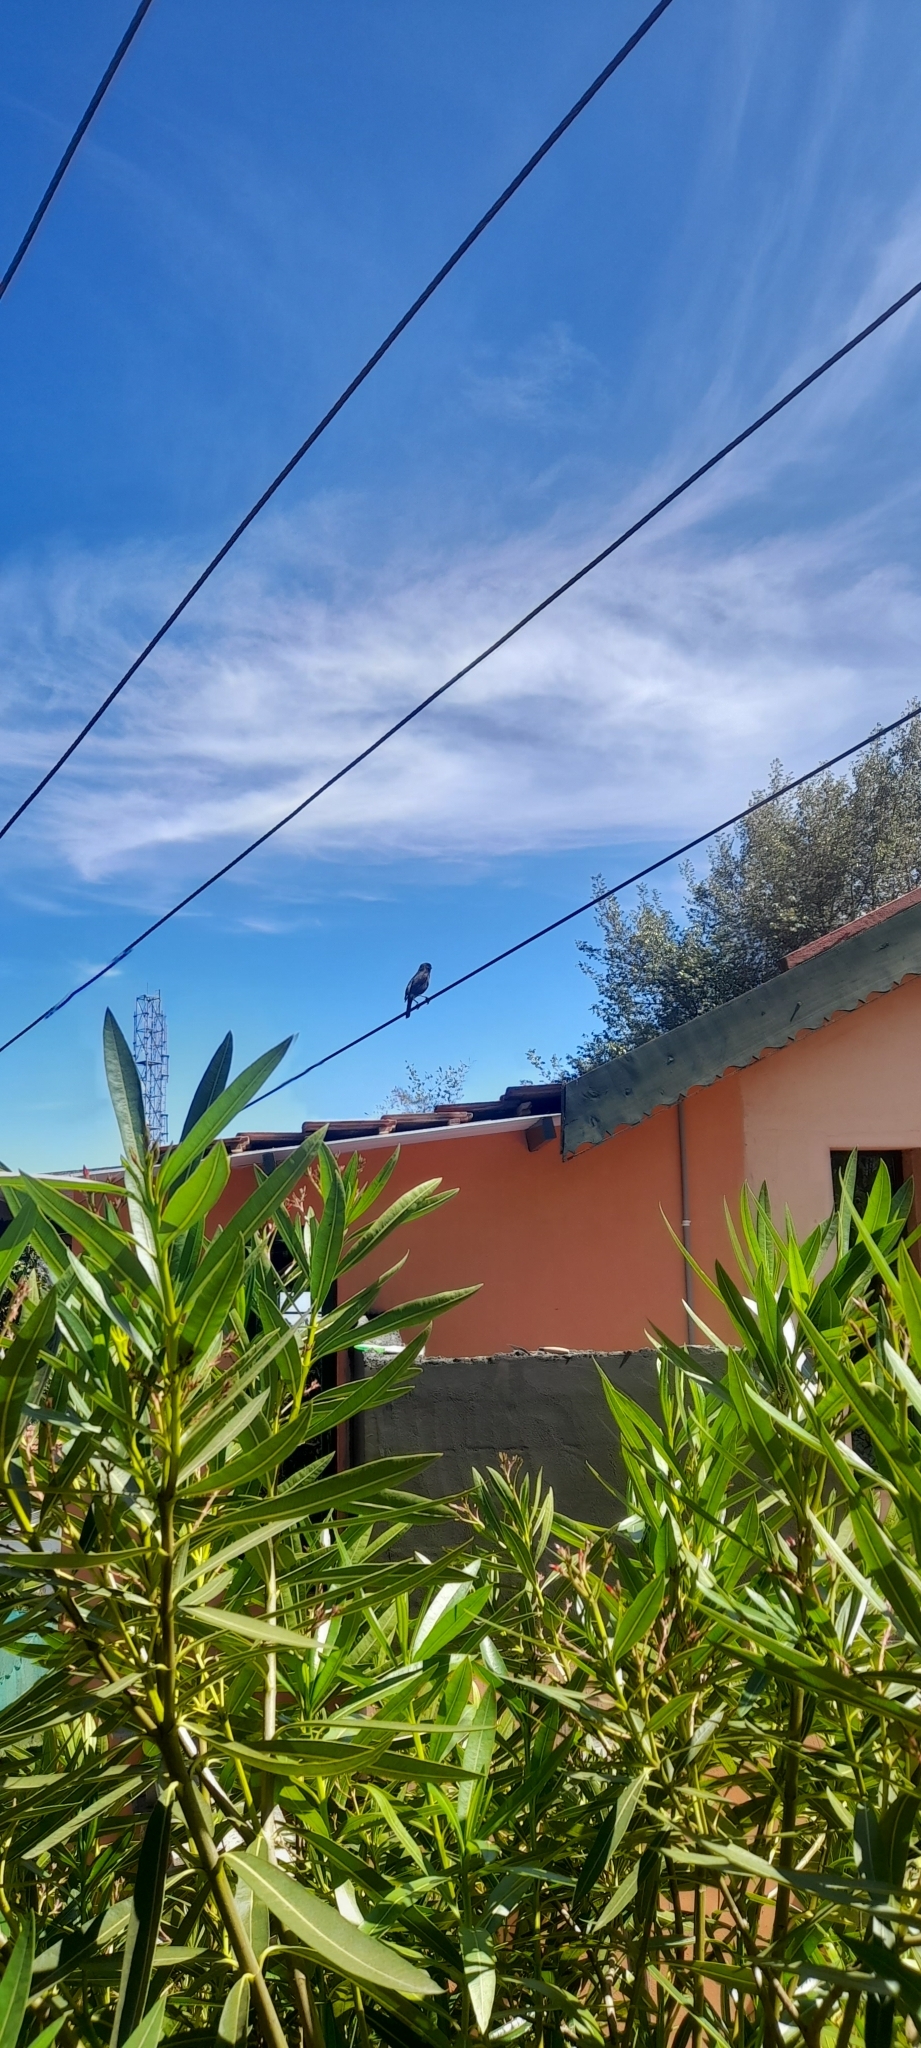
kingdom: Animalia
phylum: Chordata
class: Aves
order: Passeriformes
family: Muscicapidae
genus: Saxicola
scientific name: Saxicola caprata
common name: Pied bush chat
